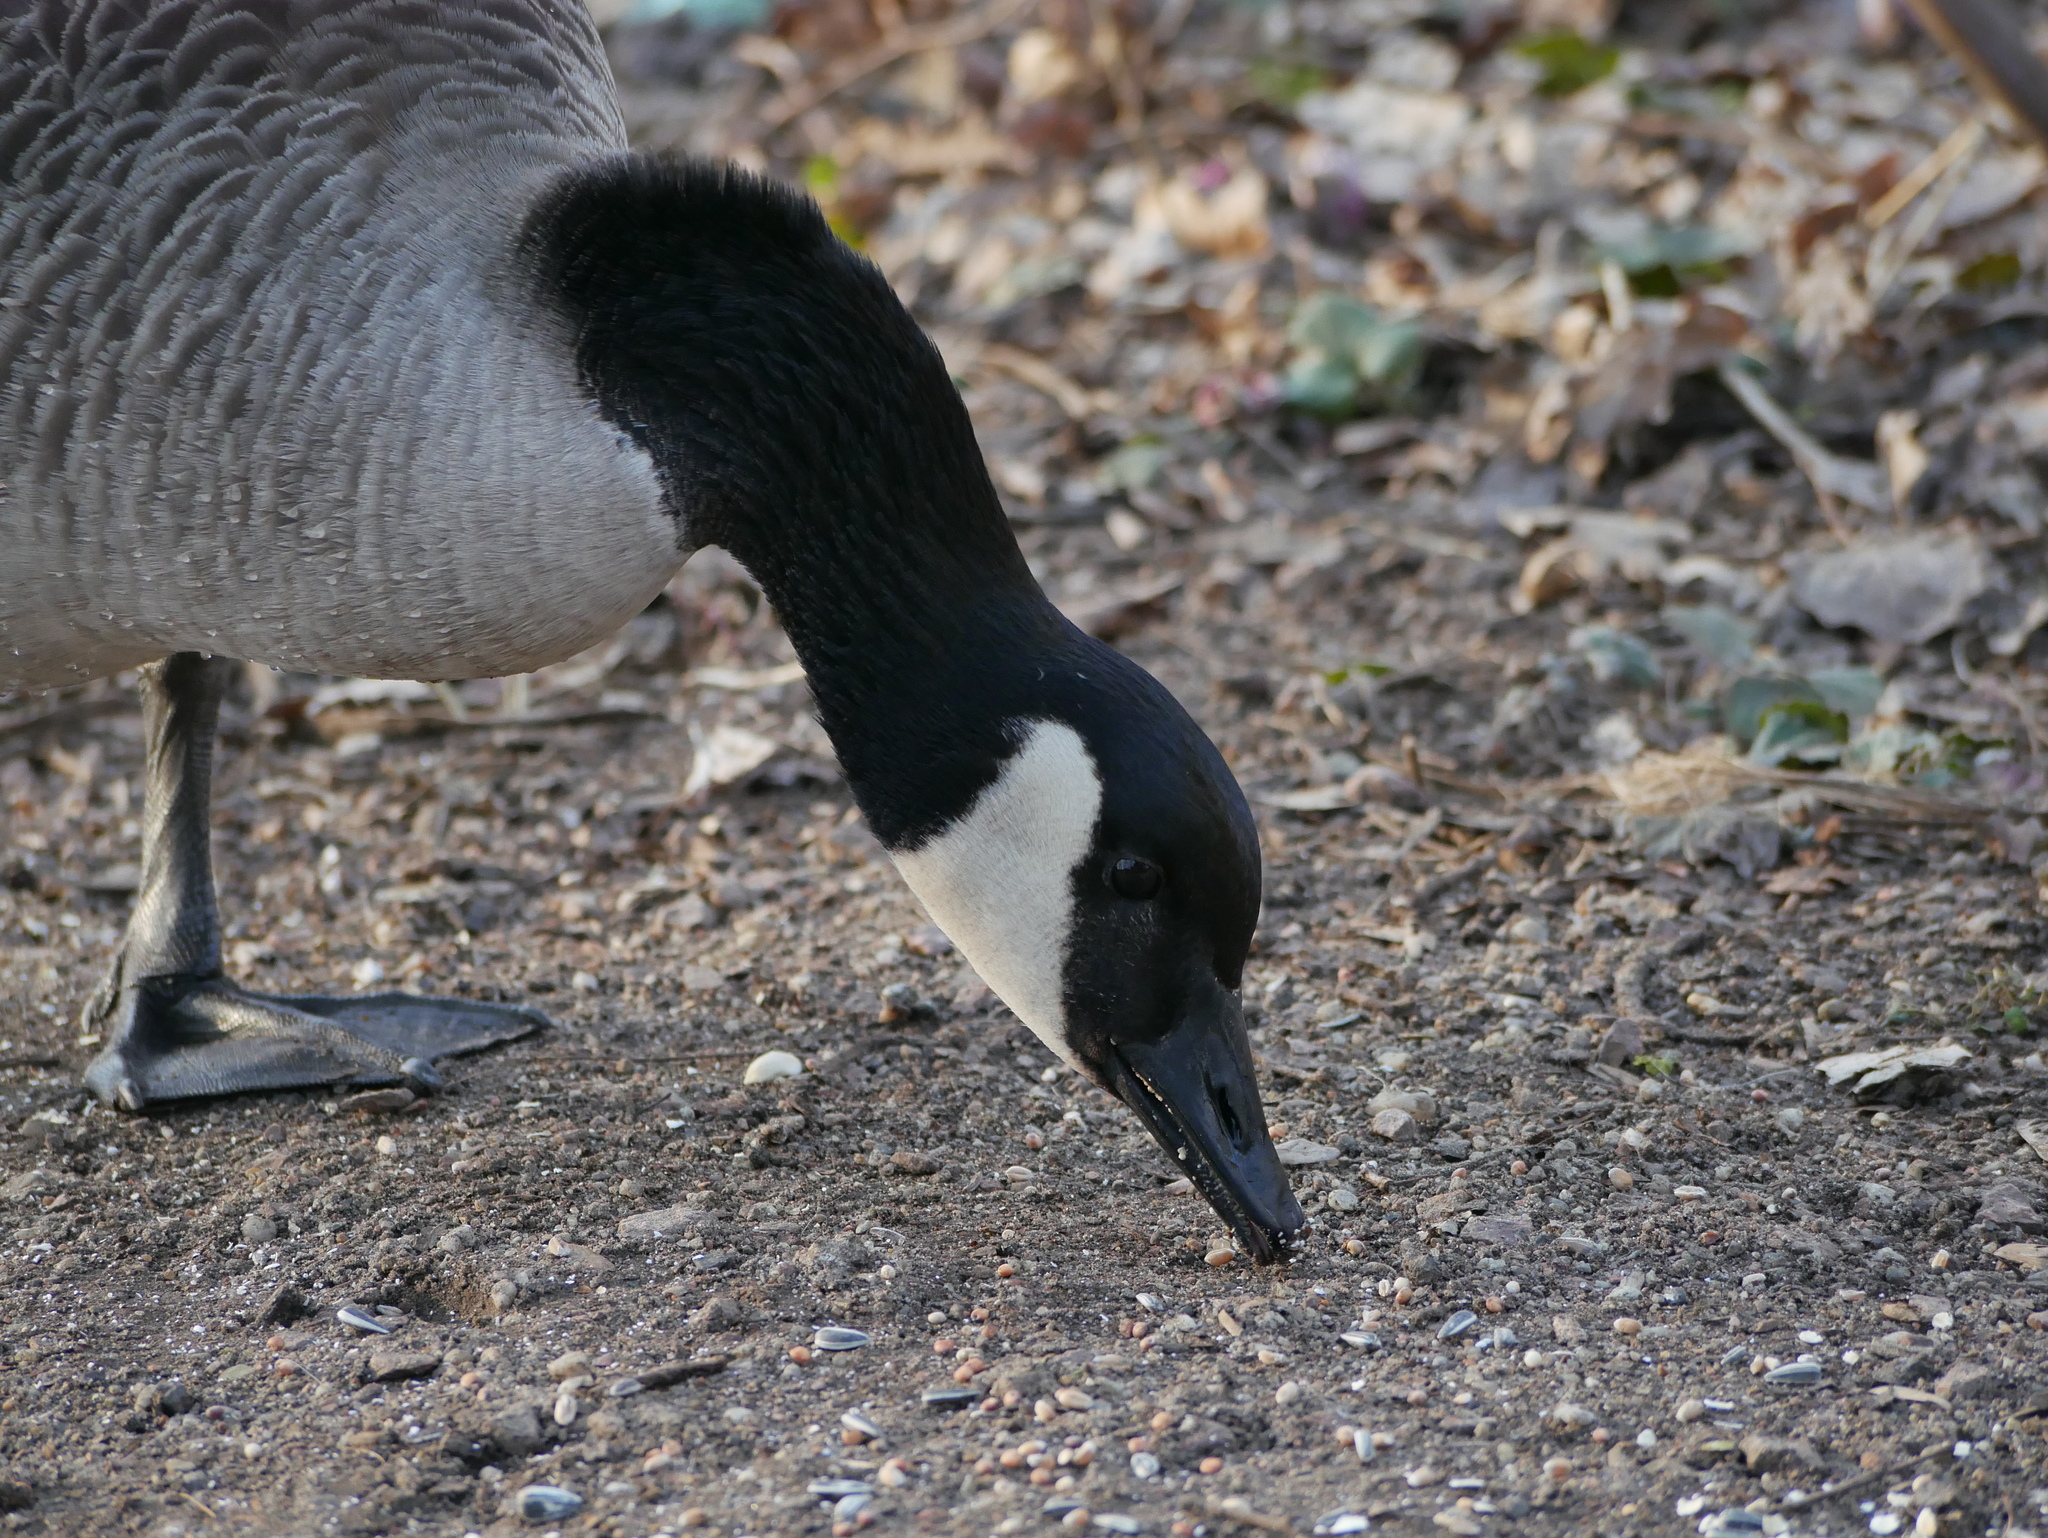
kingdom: Animalia
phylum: Chordata
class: Aves
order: Anseriformes
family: Anatidae
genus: Branta
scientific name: Branta canadensis
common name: Canada goose
